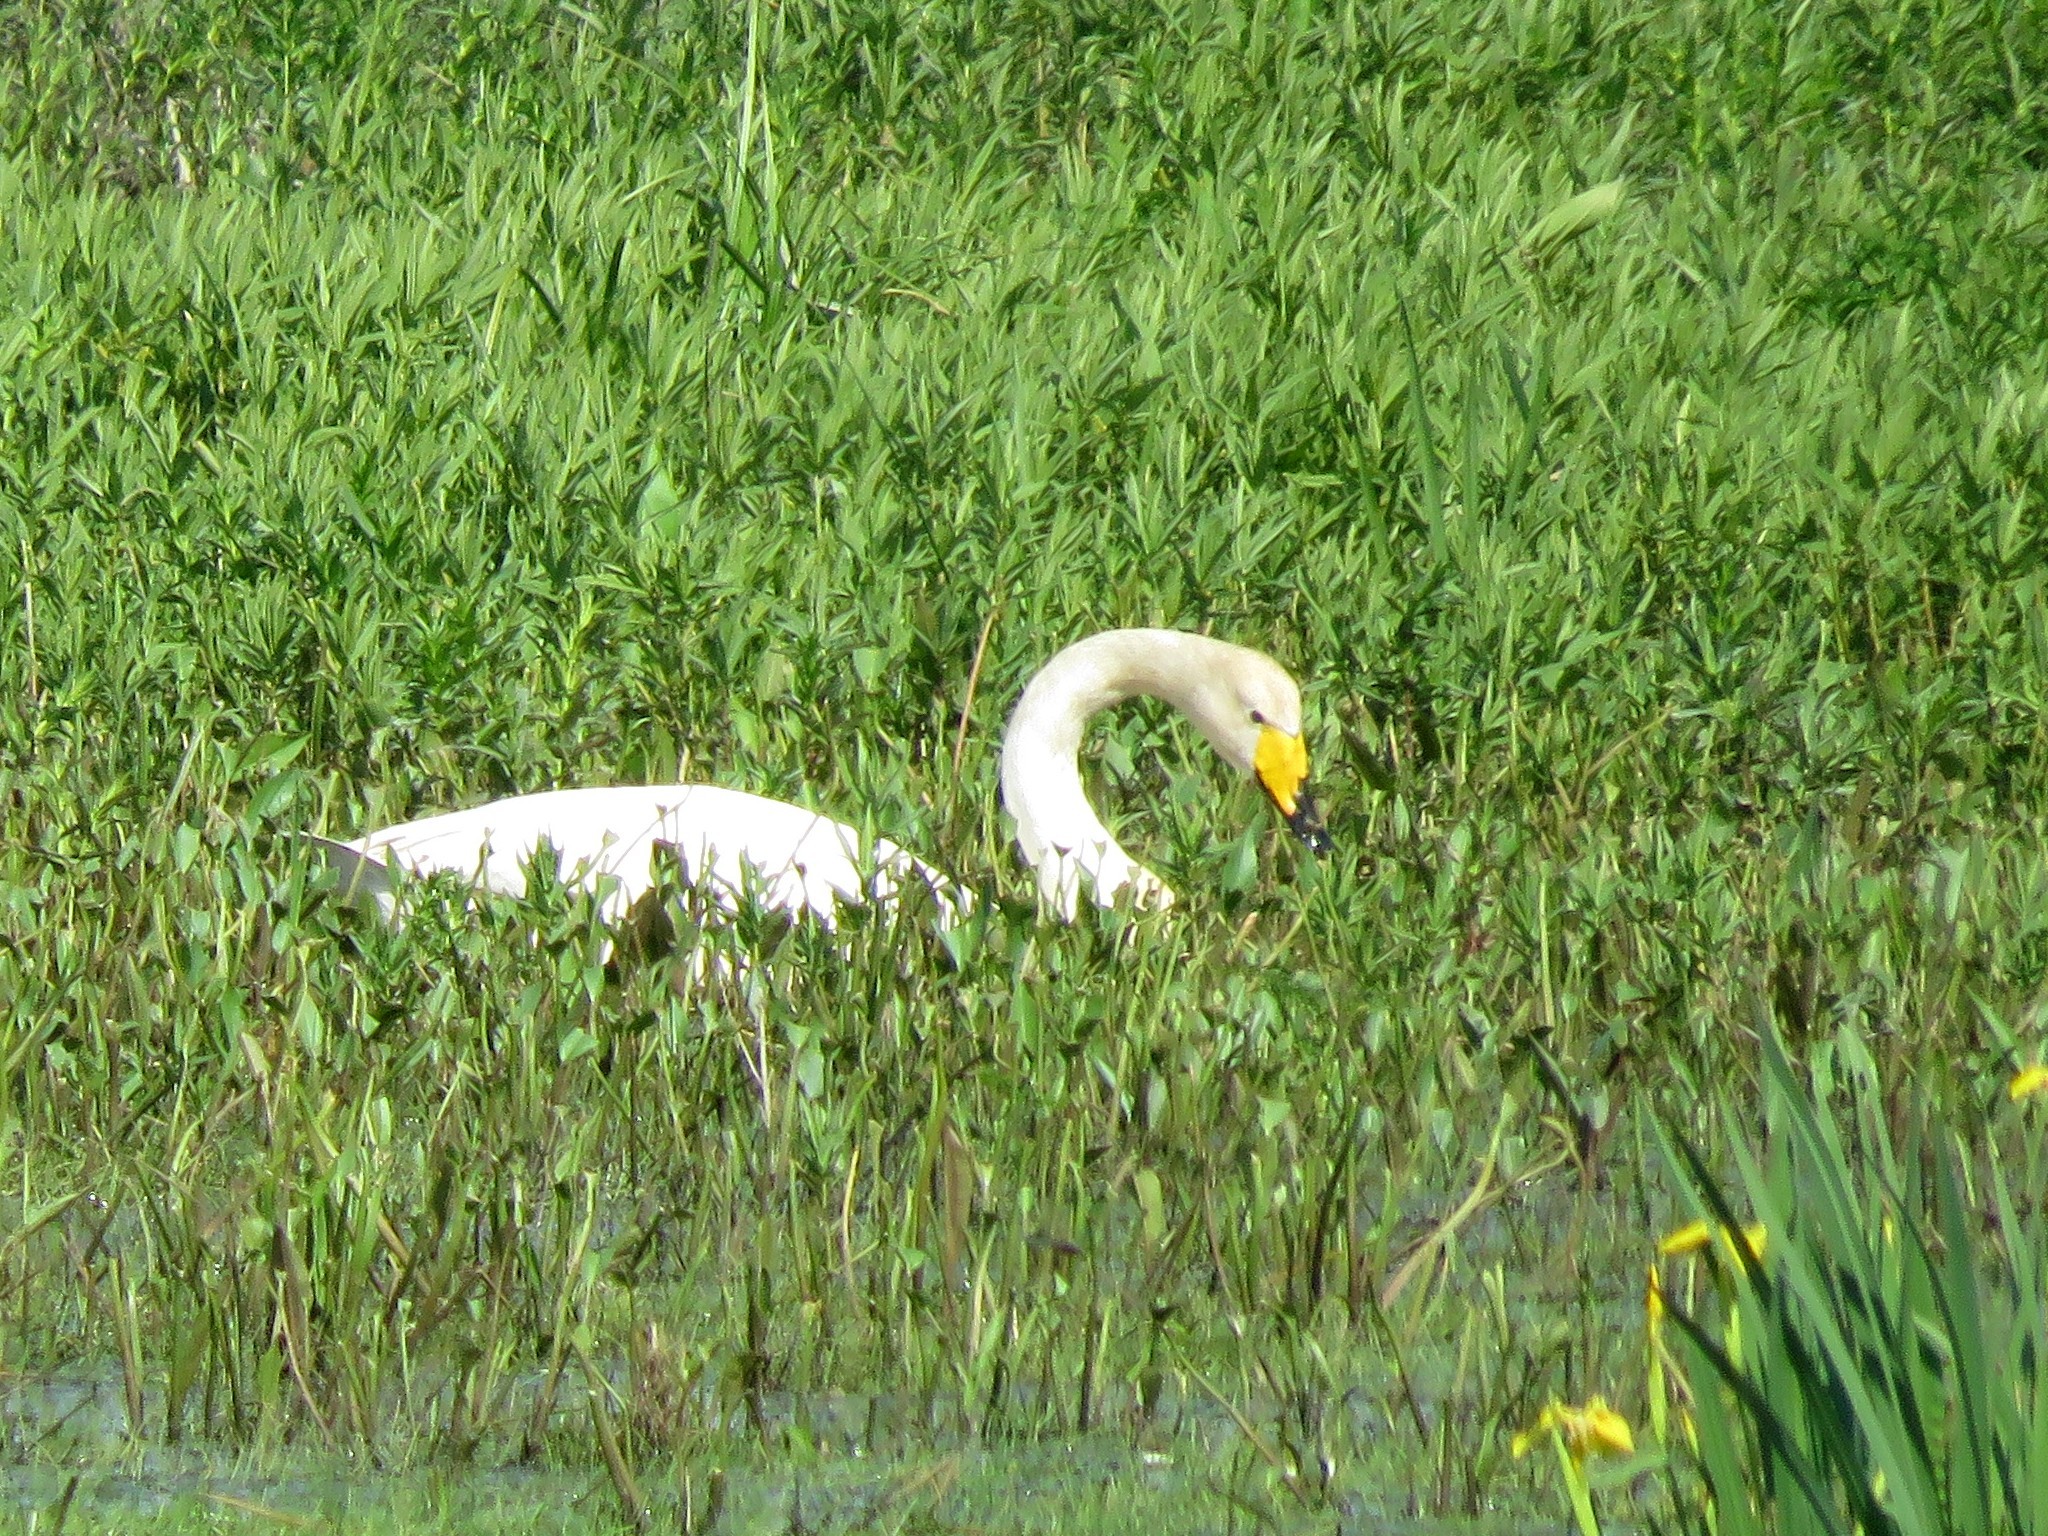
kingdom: Animalia
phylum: Chordata
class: Aves
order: Anseriformes
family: Anatidae
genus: Cygnus
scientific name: Cygnus cygnus
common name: Whooper swan
